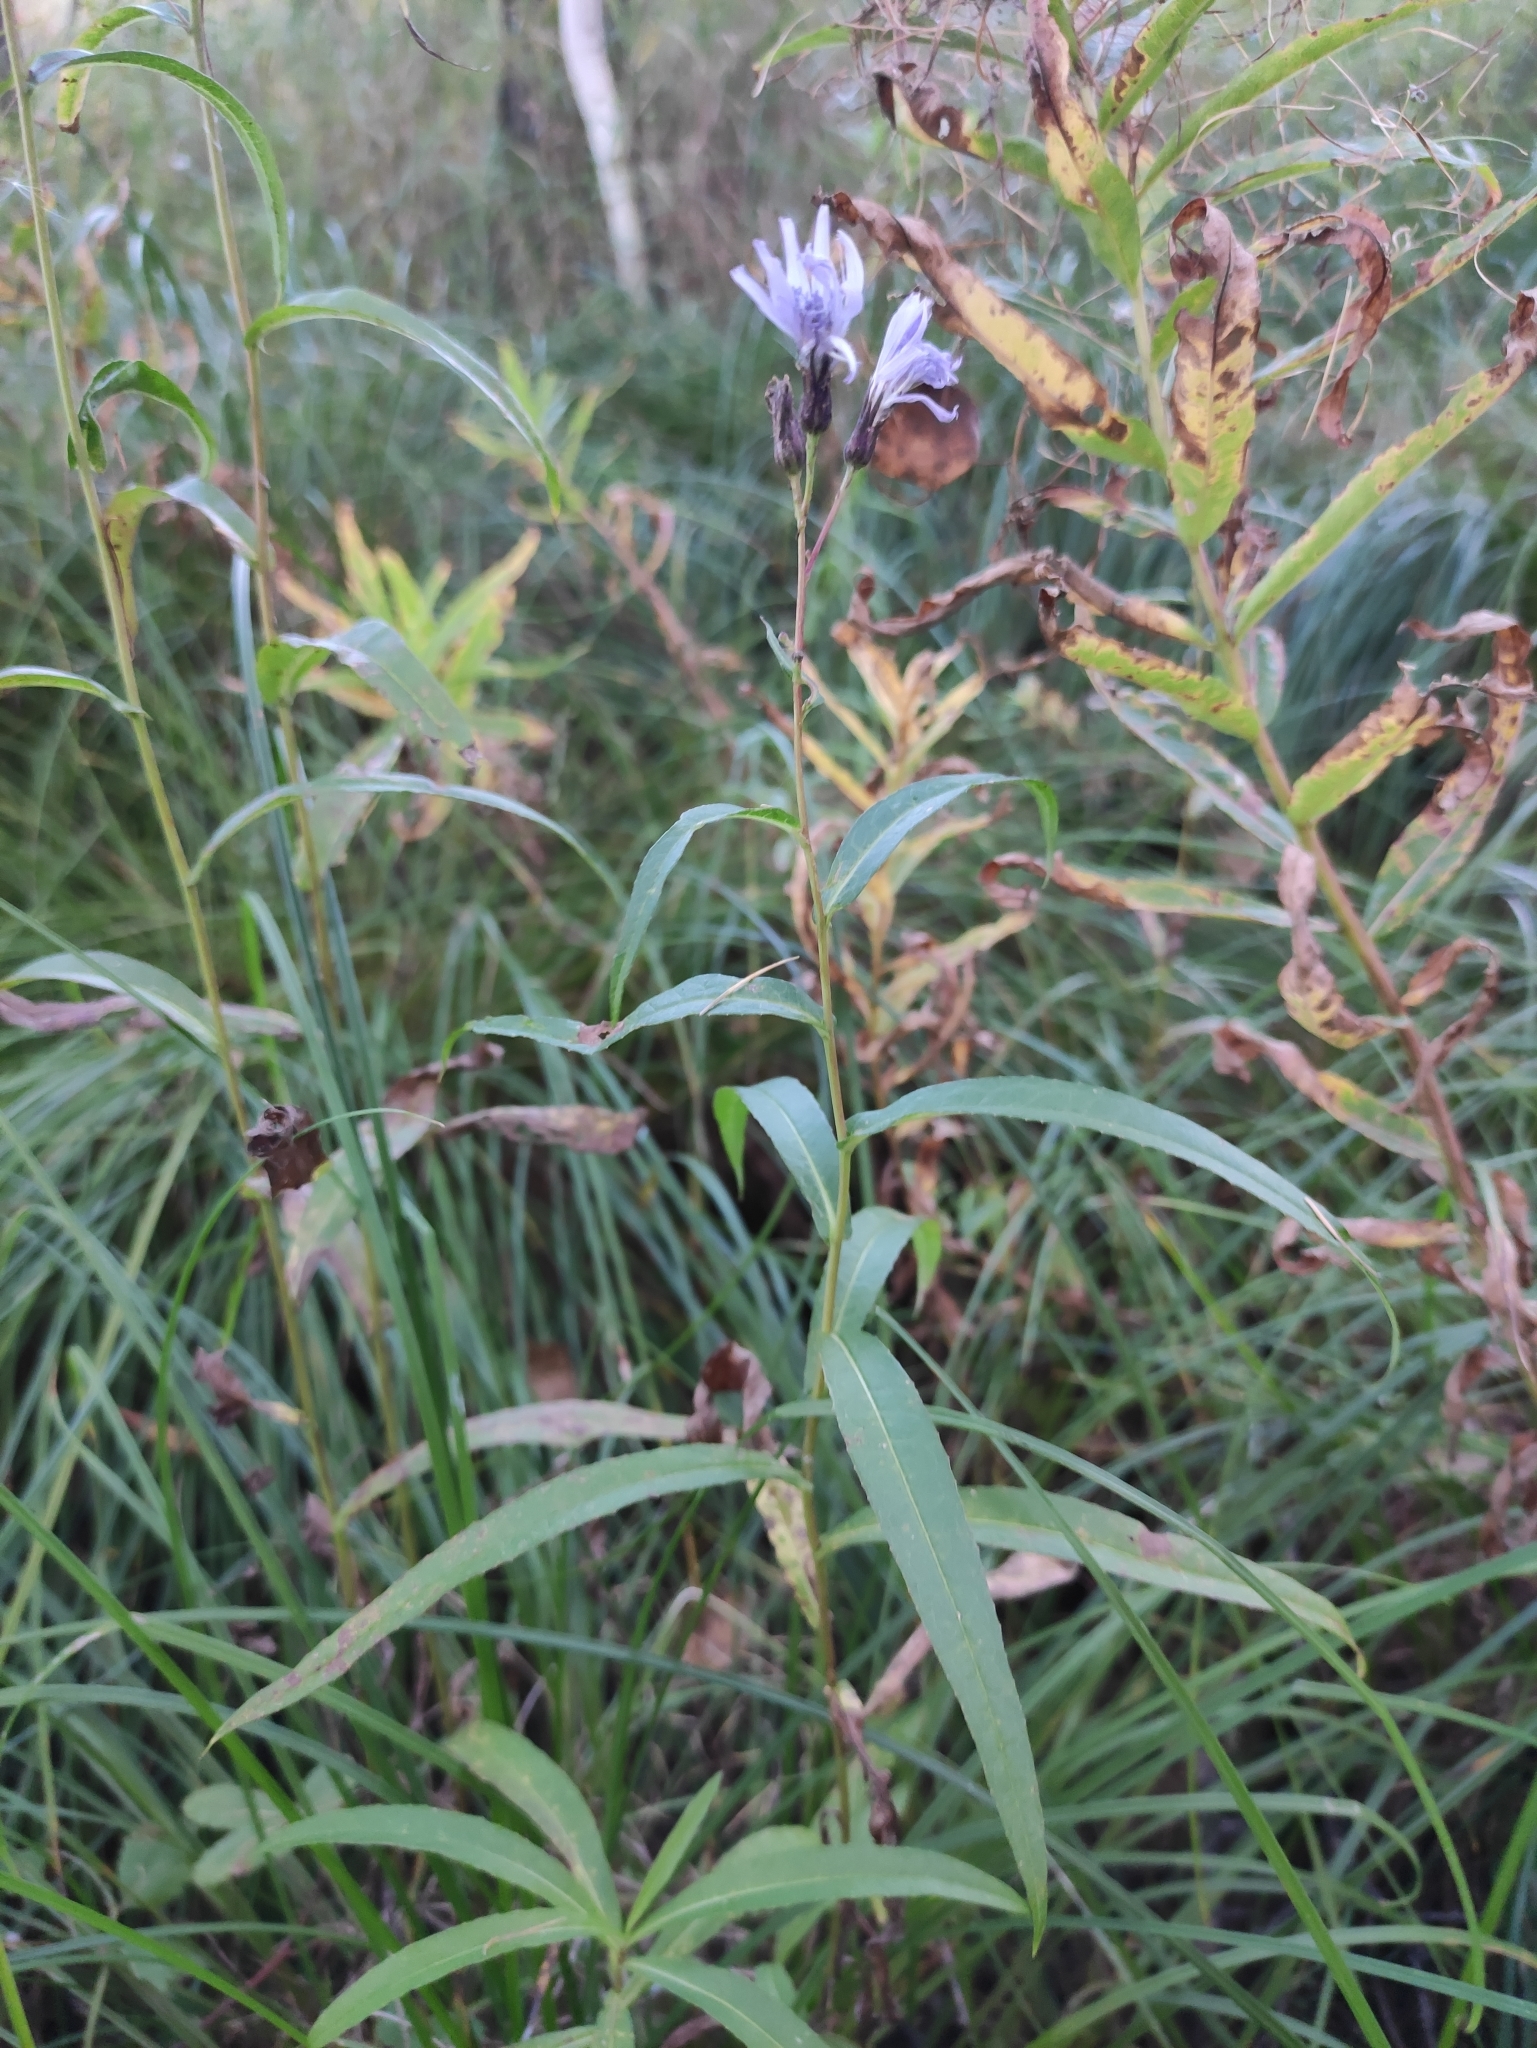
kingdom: Plantae
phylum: Tracheophyta
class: Magnoliopsida
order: Asterales
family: Asteraceae
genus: Lactuca
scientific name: Lactuca sibirica
